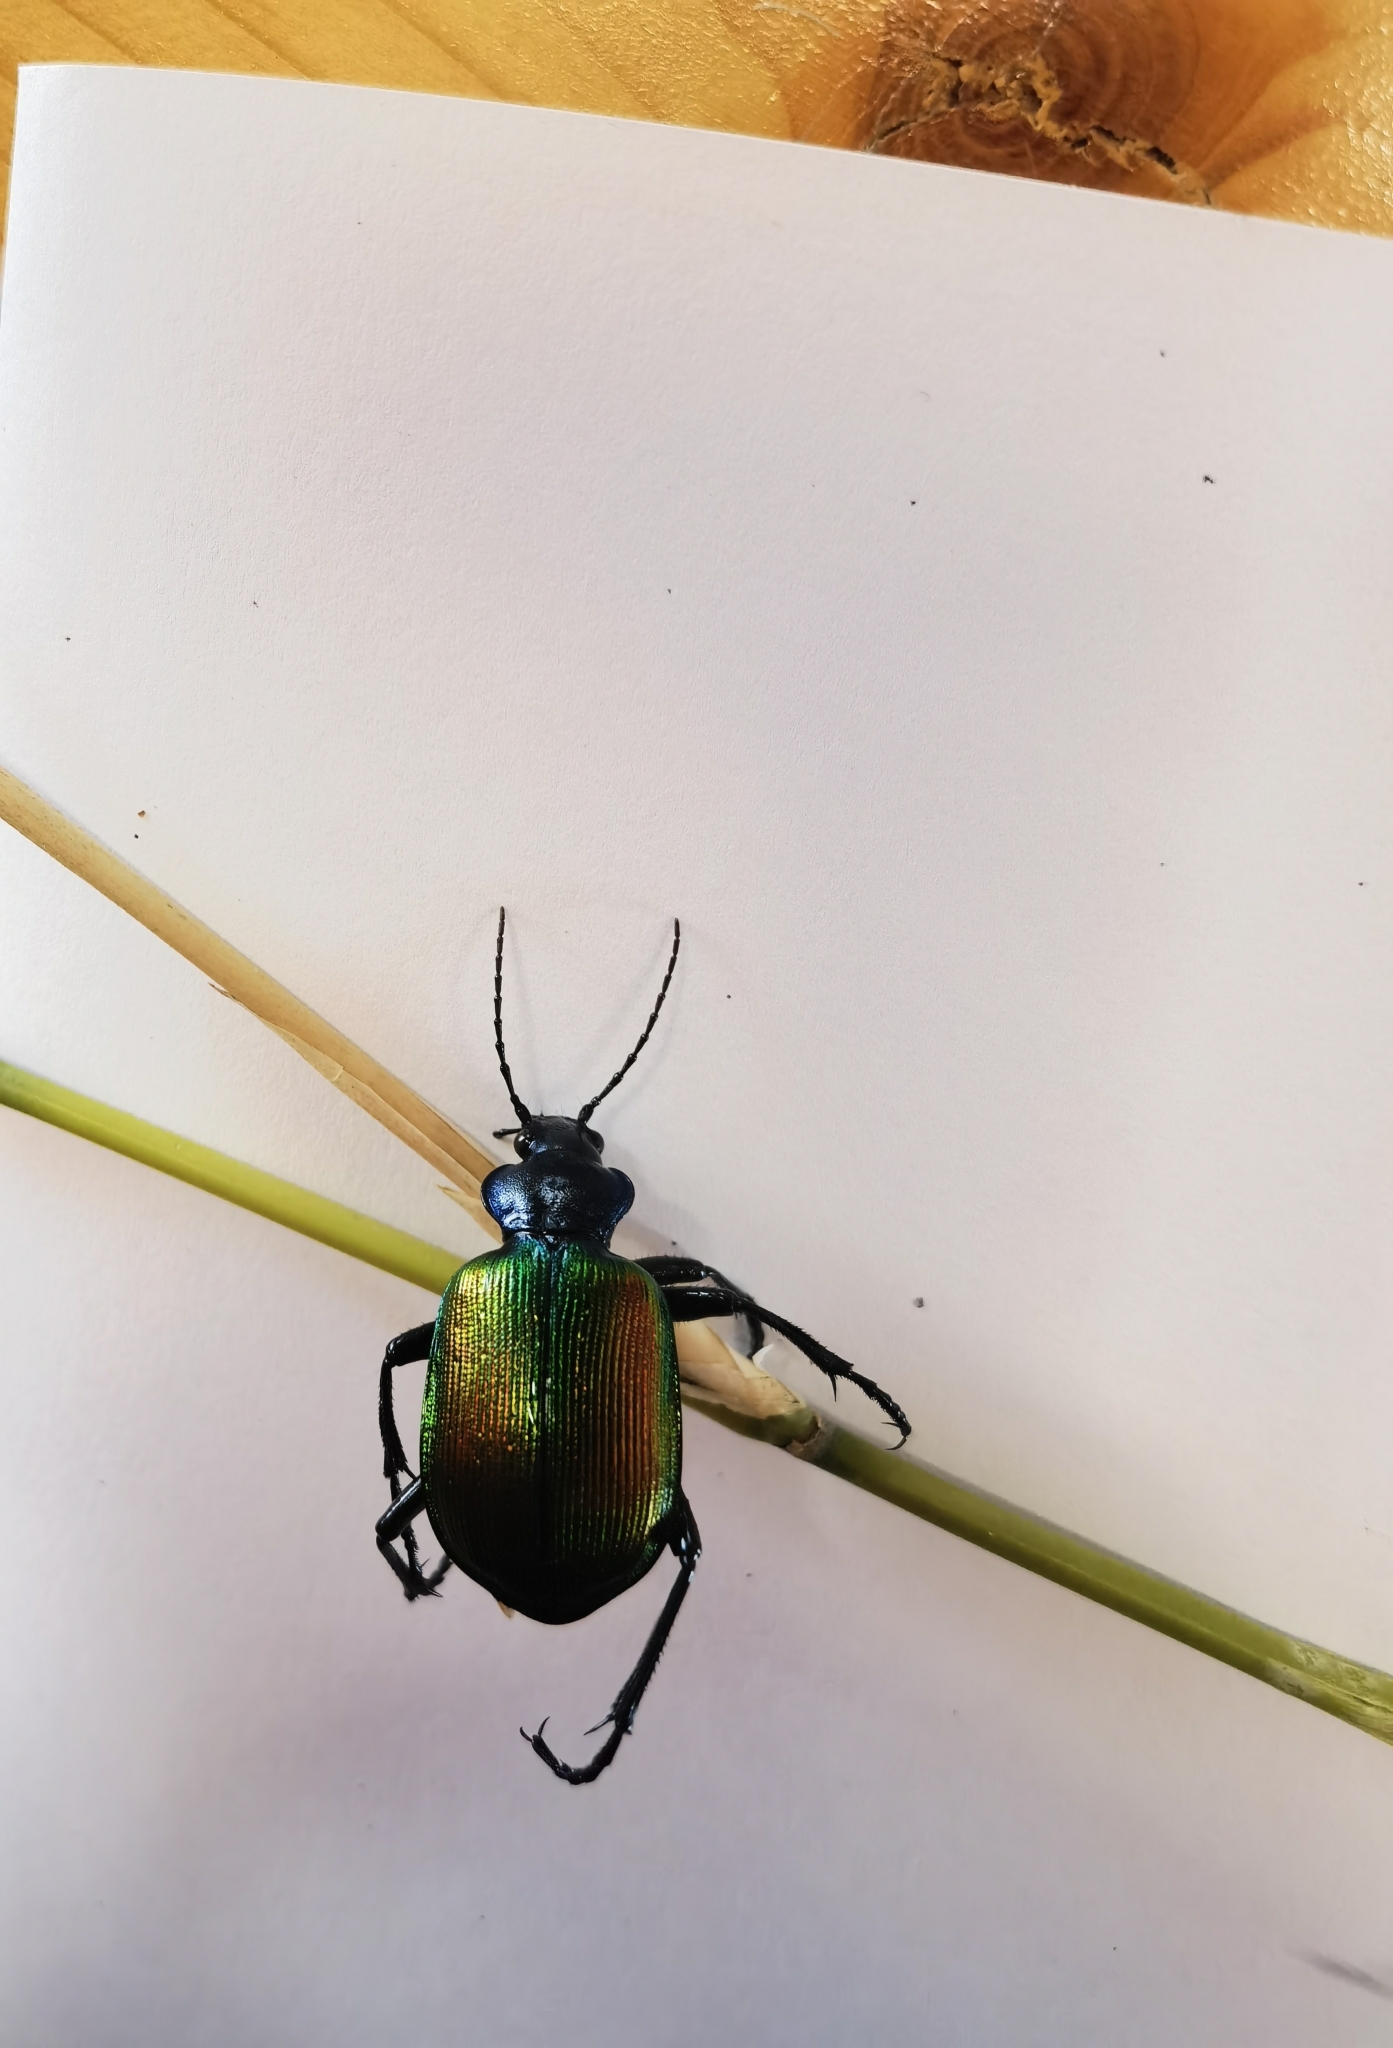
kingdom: Animalia
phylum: Arthropoda
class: Insecta
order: Coleoptera
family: Carabidae
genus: Calosoma
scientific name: Calosoma sycophanta
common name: Forest caterpillar hunter
